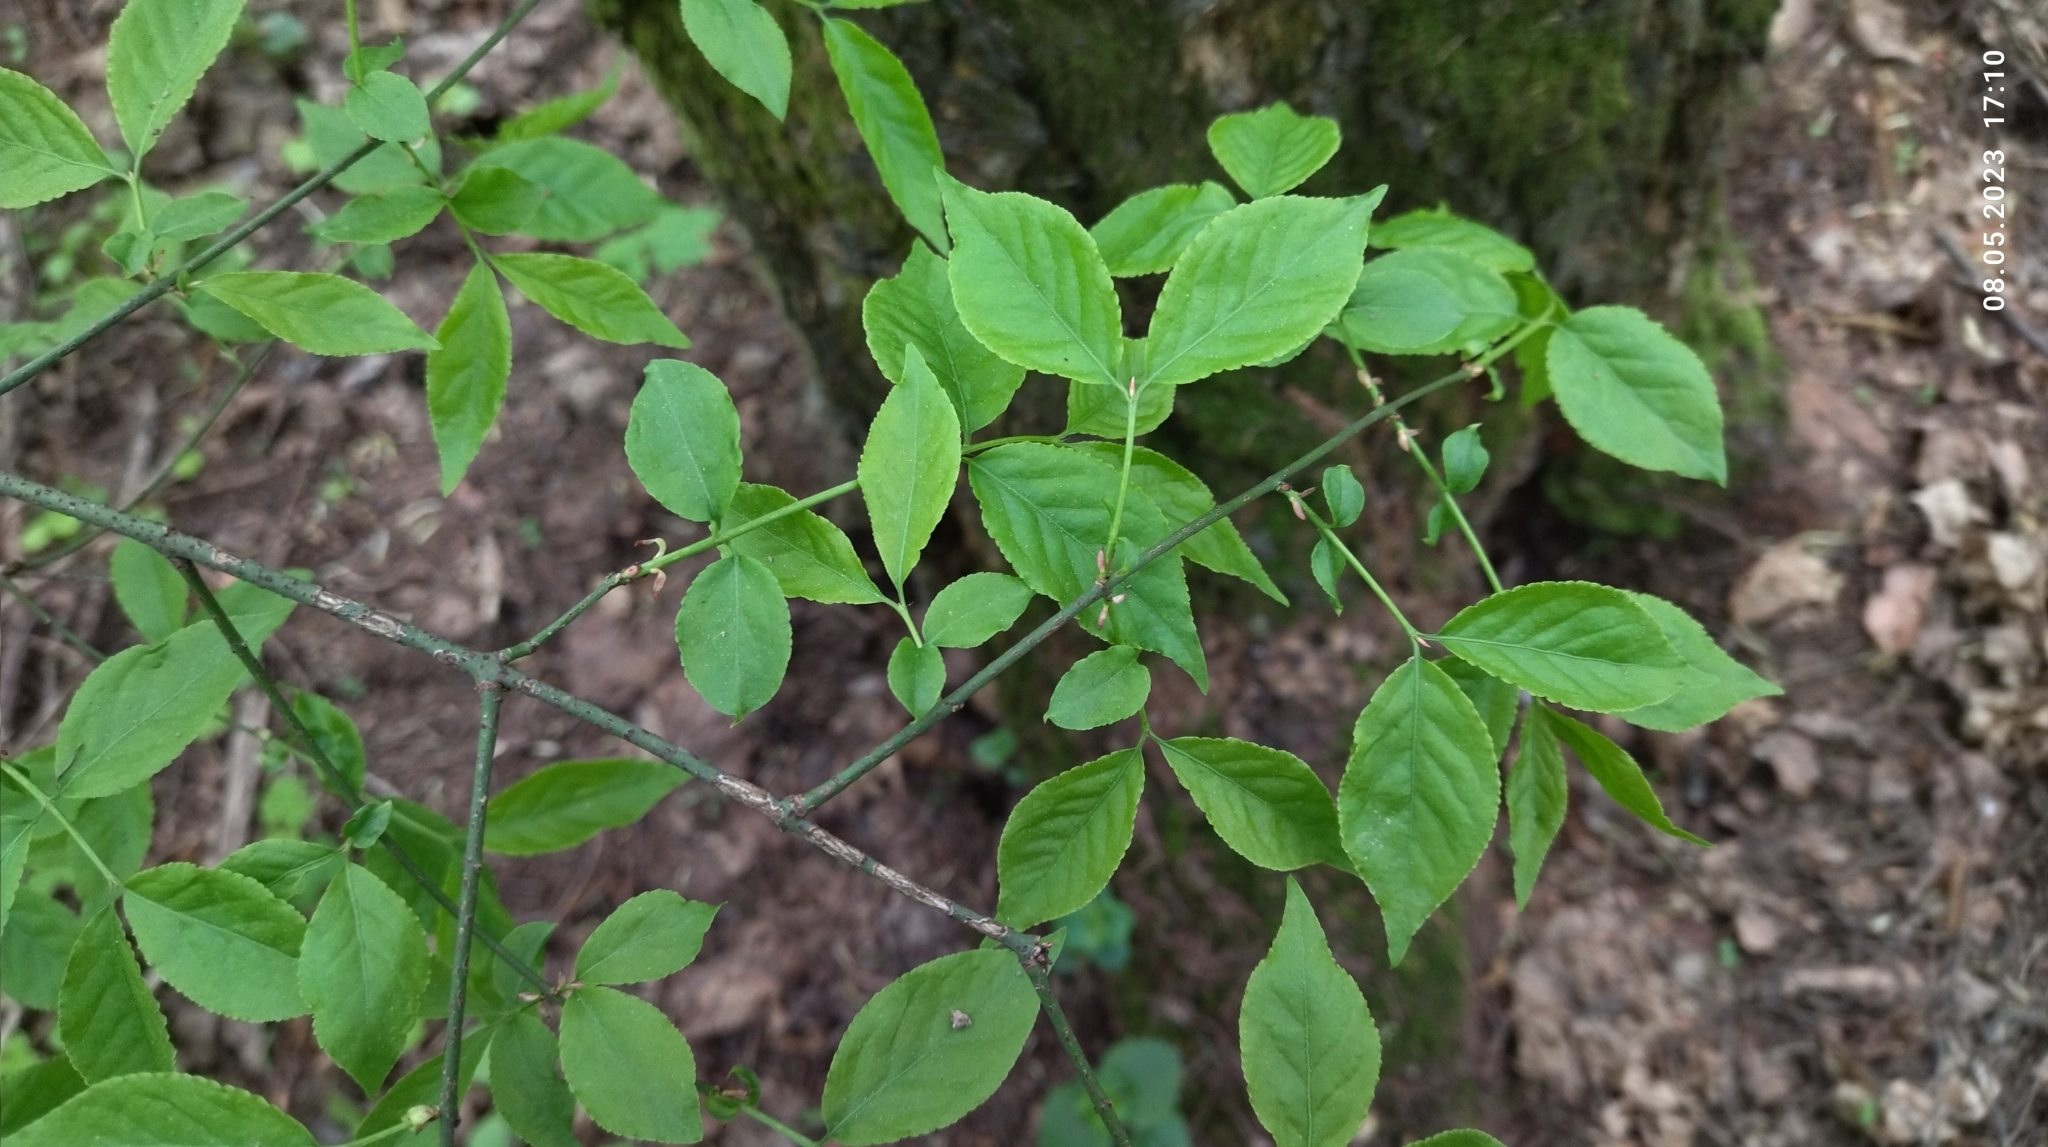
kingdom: Plantae
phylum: Tracheophyta
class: Magnoliopsida
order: Celastrales
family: Celastraceae
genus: Euonymus
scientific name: Euonymus verrucosus
